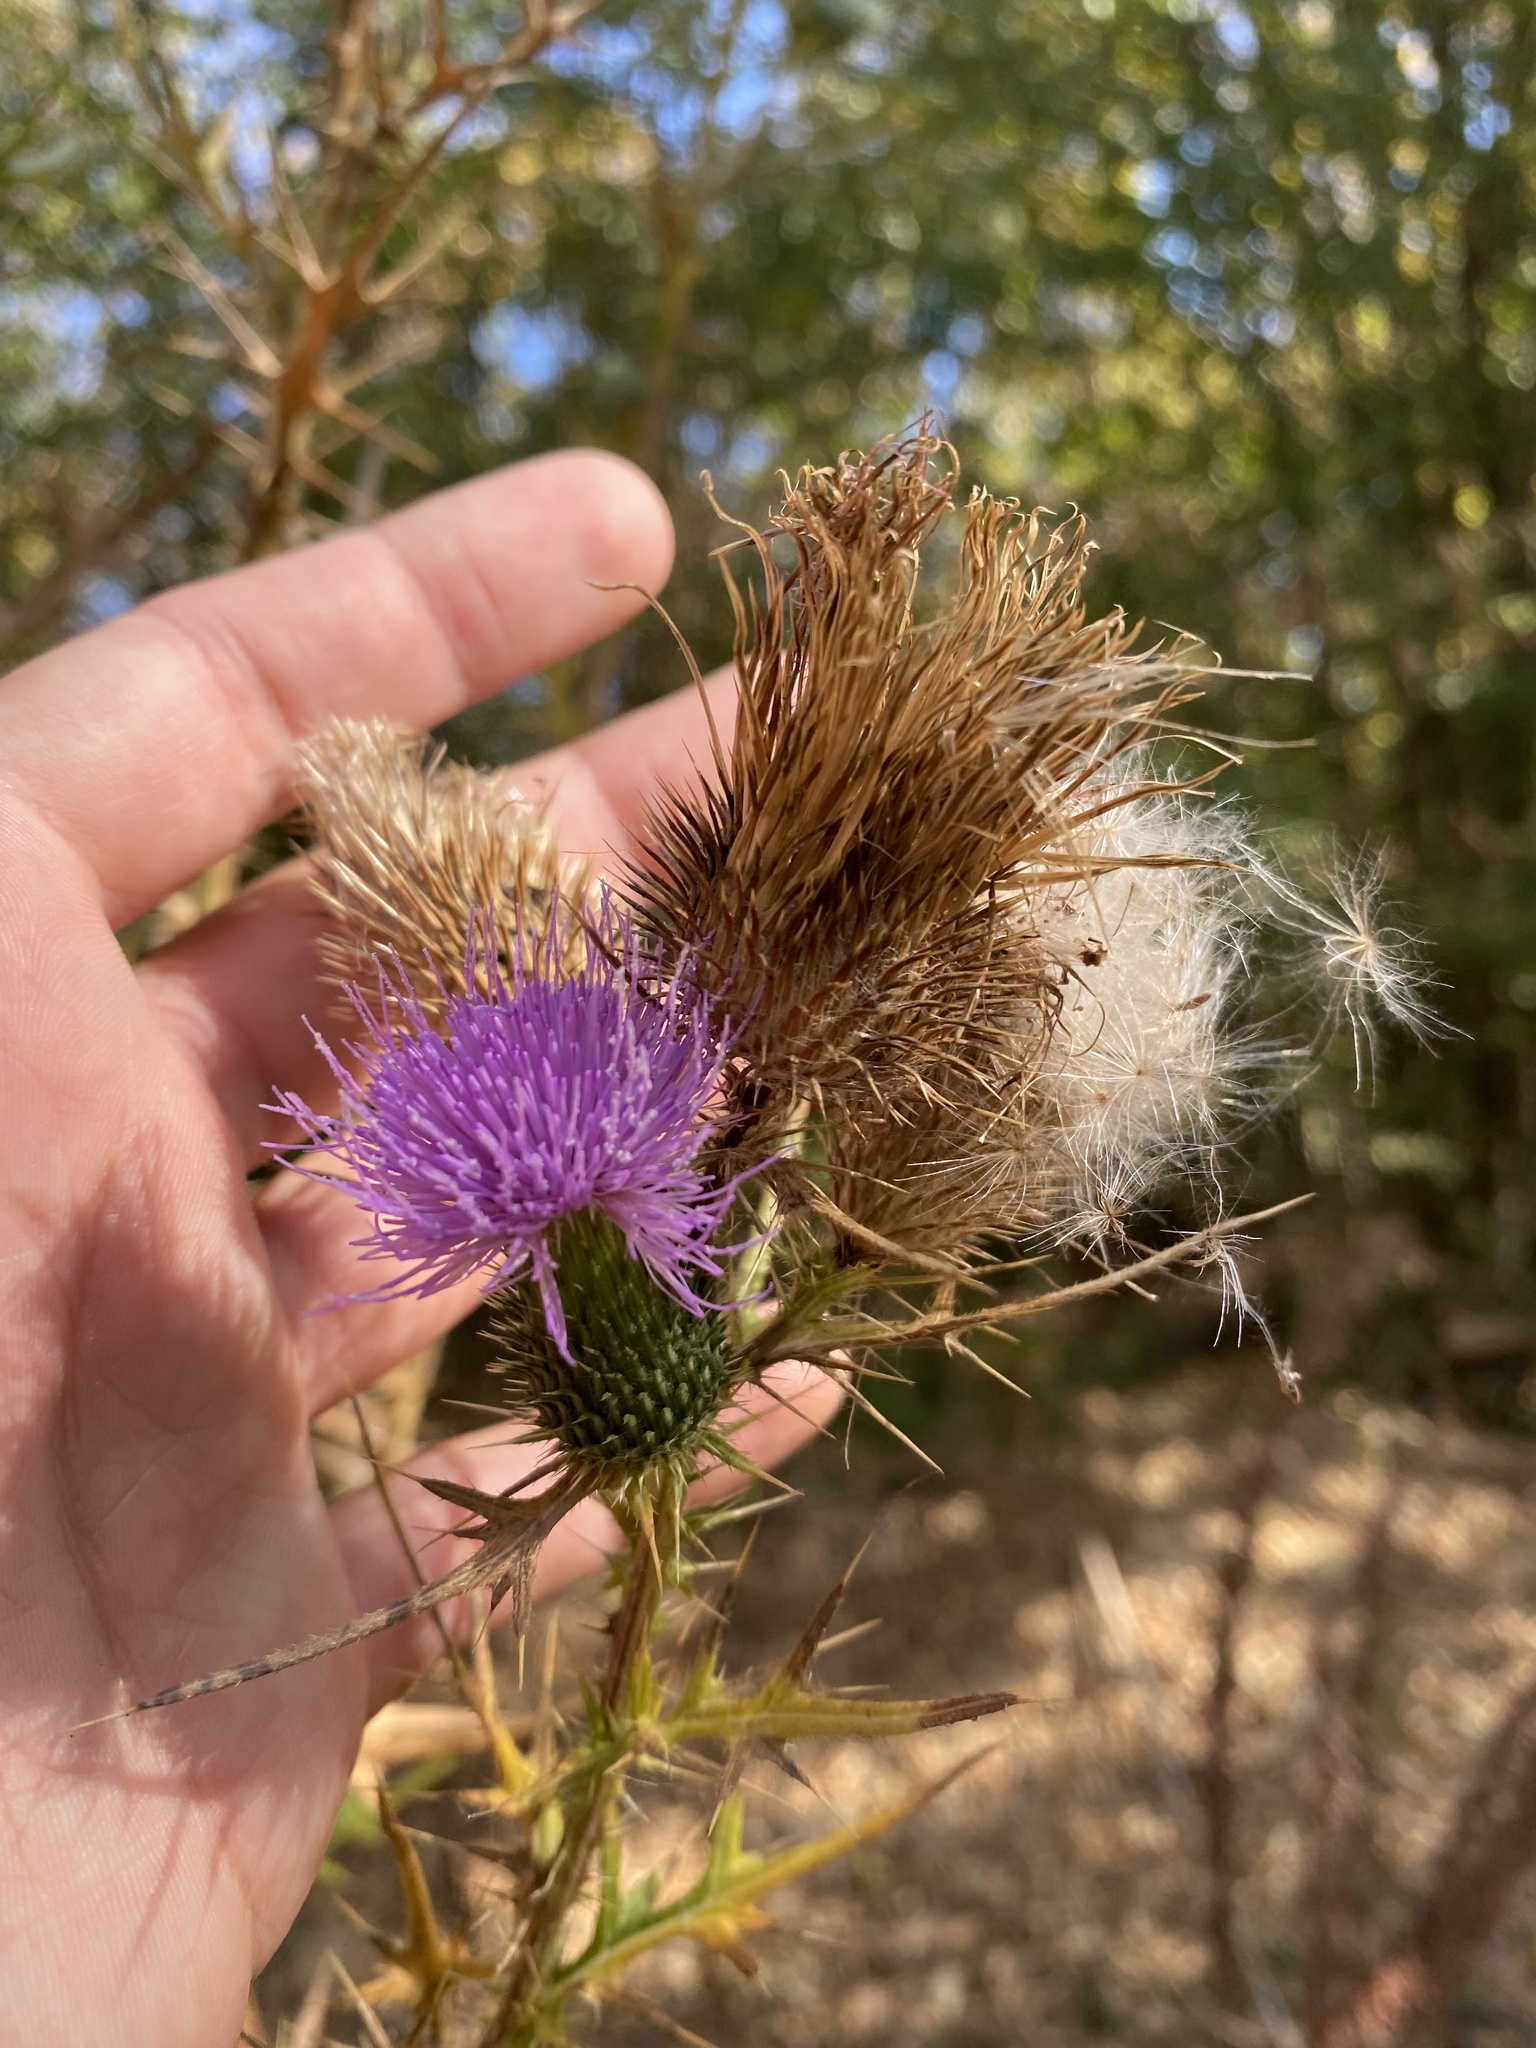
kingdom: Plantae
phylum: Tracheophyta
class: Magnoliopsida
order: Asterales
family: Asteraceae
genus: Cirsium
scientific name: Cirsium vulgare
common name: Bull thistle
